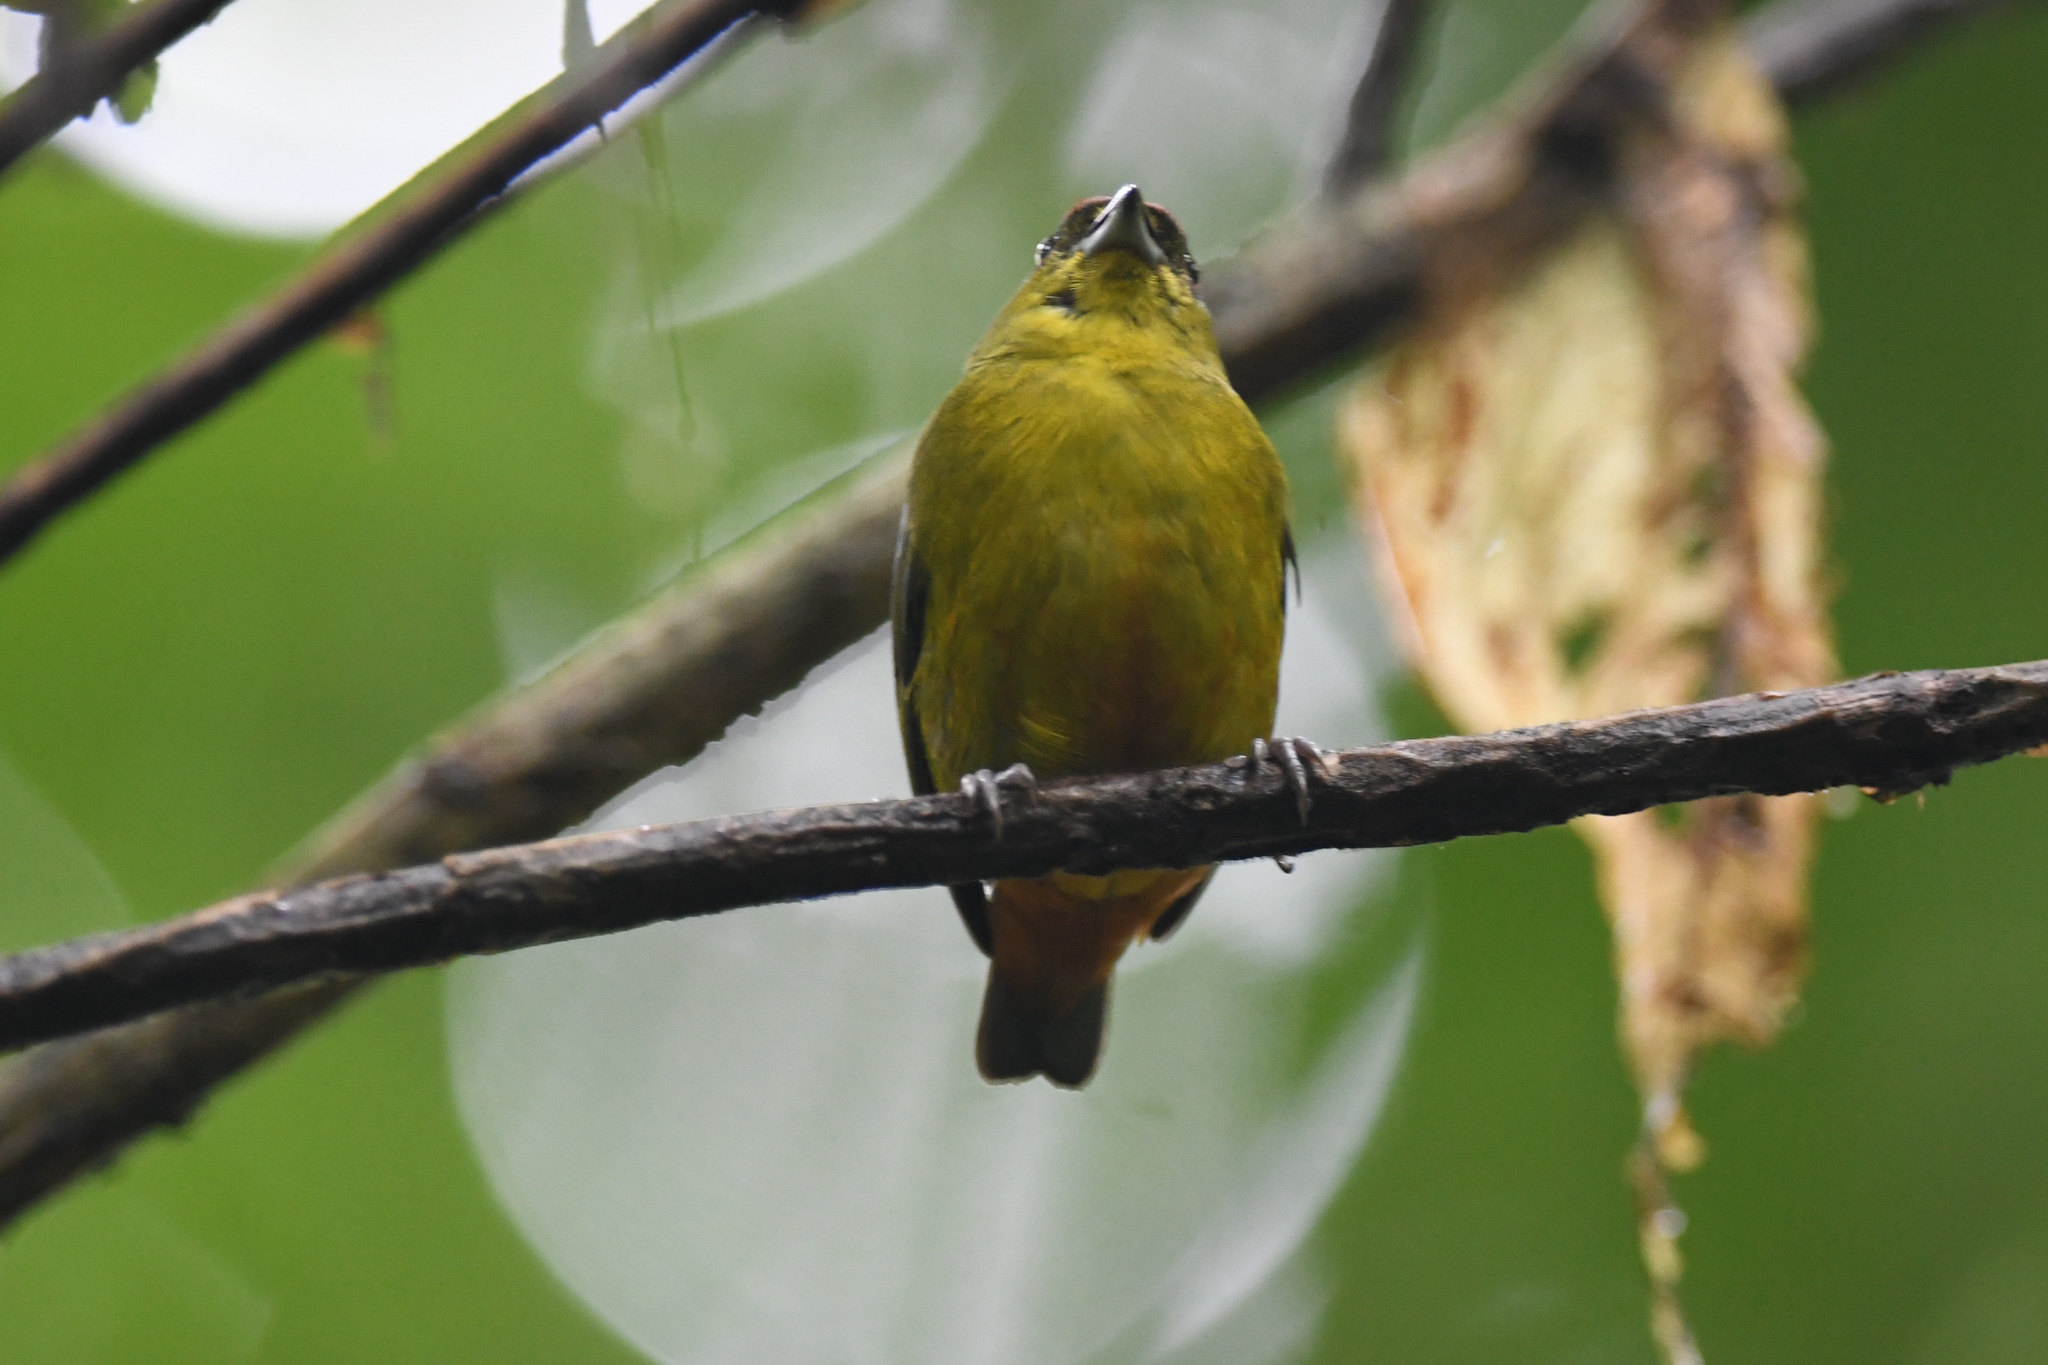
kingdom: Animalia
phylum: Chordata
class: Aves
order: Passeriformes
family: Fringillidae
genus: Euphonia
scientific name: Euphonia gouldi
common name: Olive-backed euphonia
